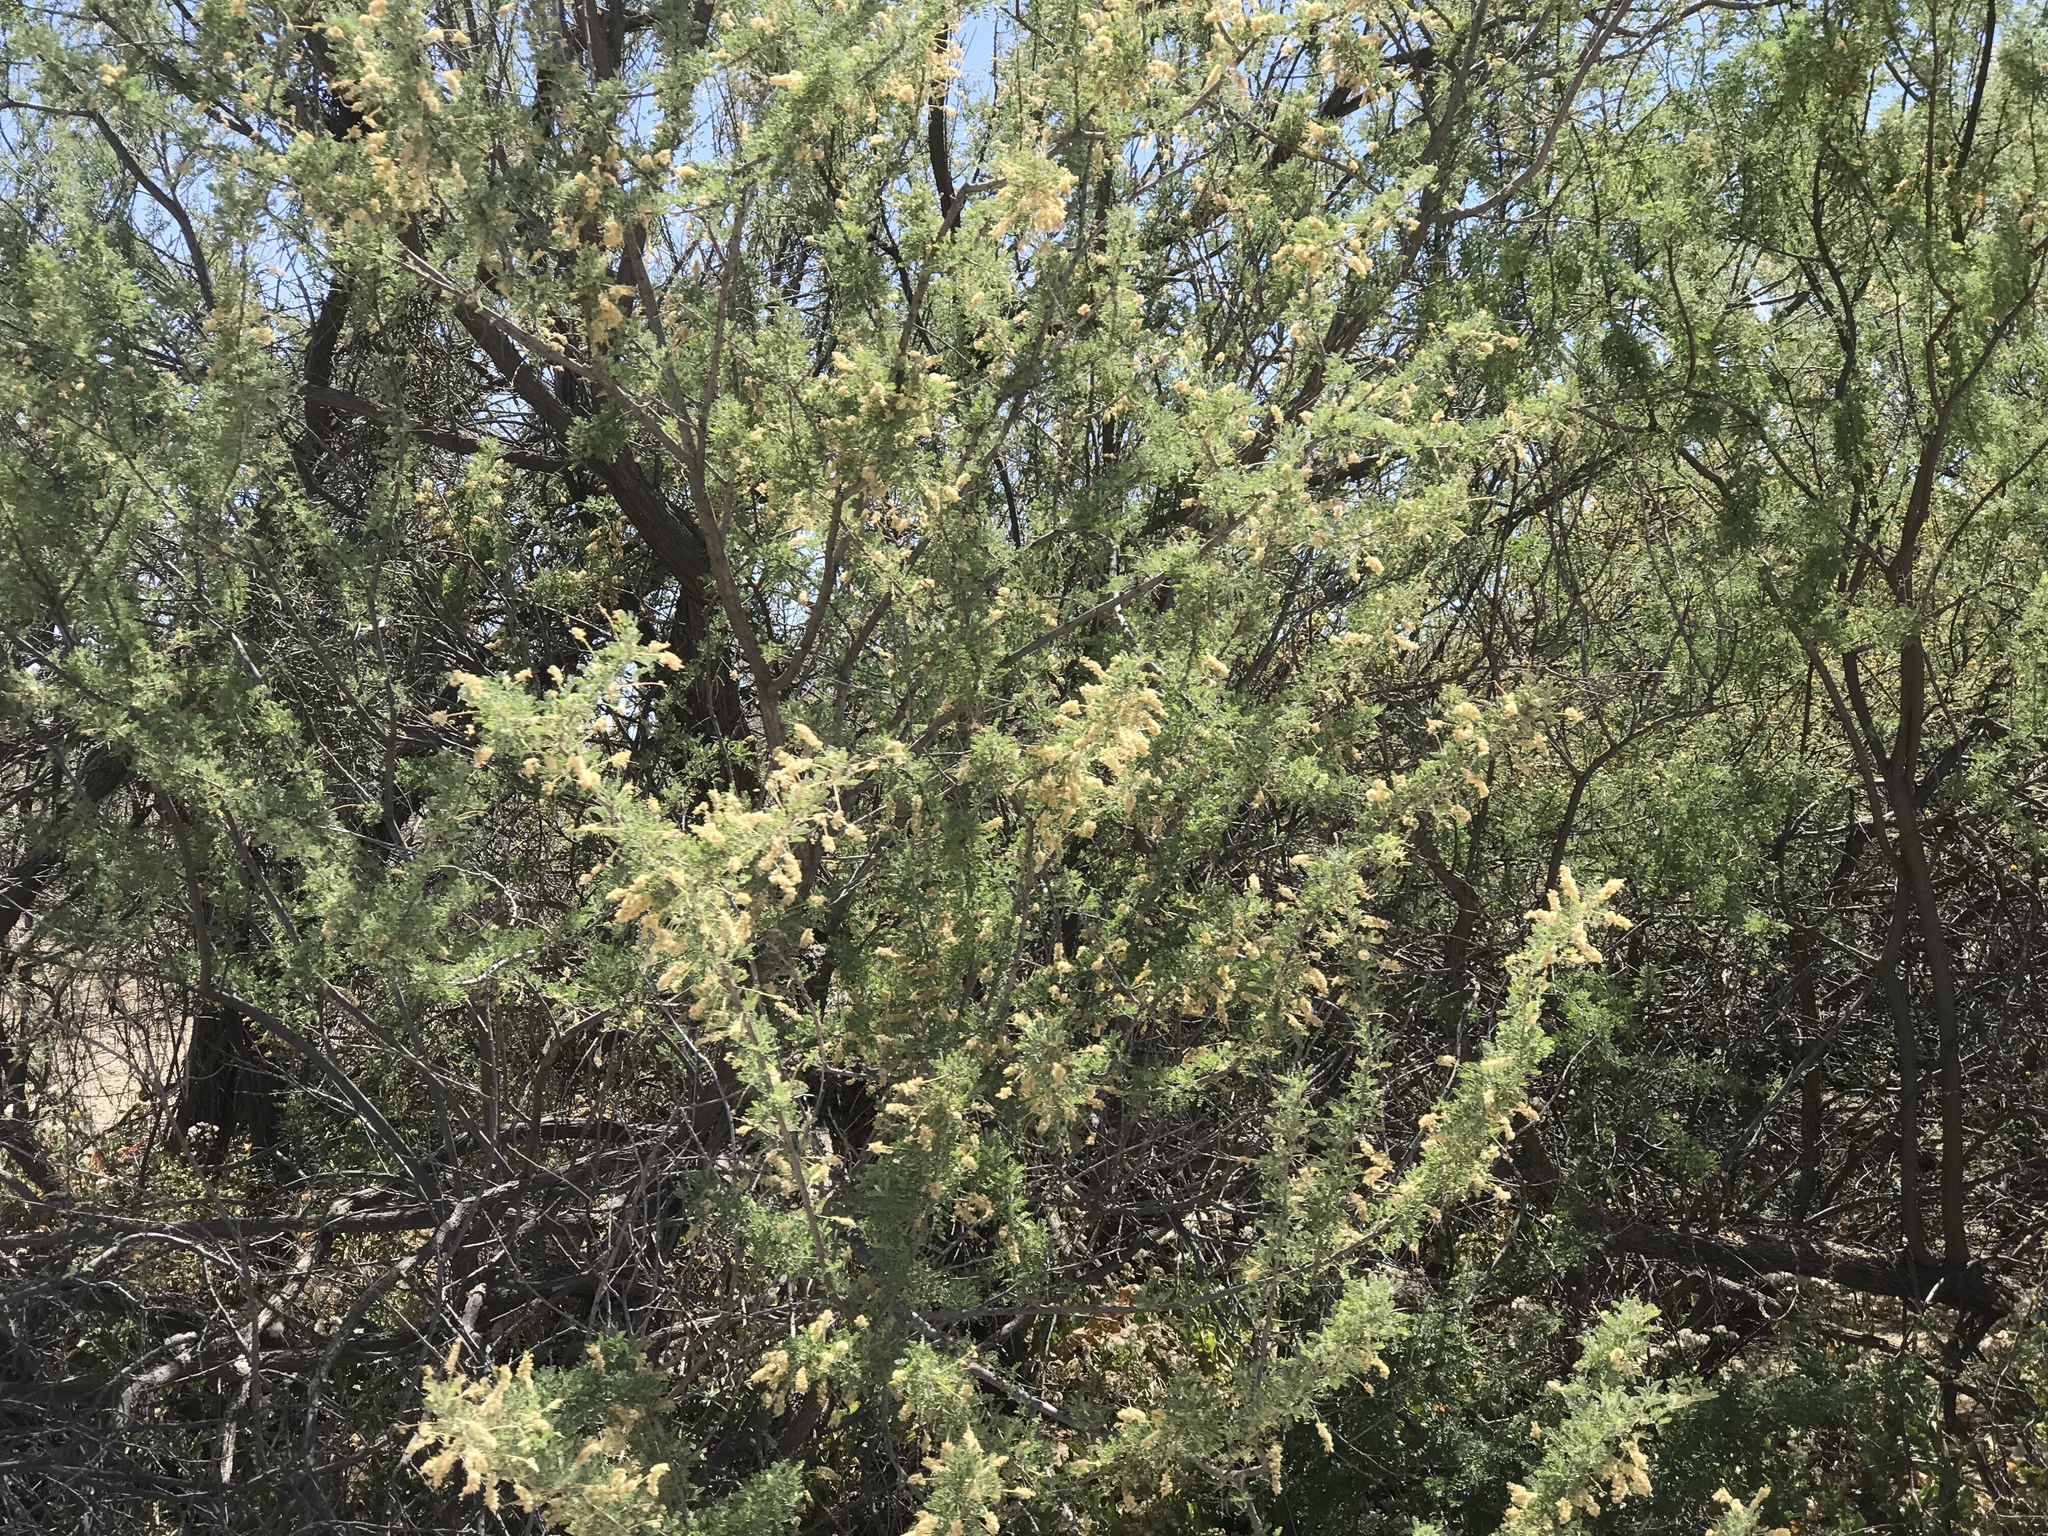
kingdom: Plantae
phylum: Tracheophyta
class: Magnoliopsida
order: Fabales
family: Fabaceae
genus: Senegalia
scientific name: Senegalia greggii
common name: Texas-mimosa
